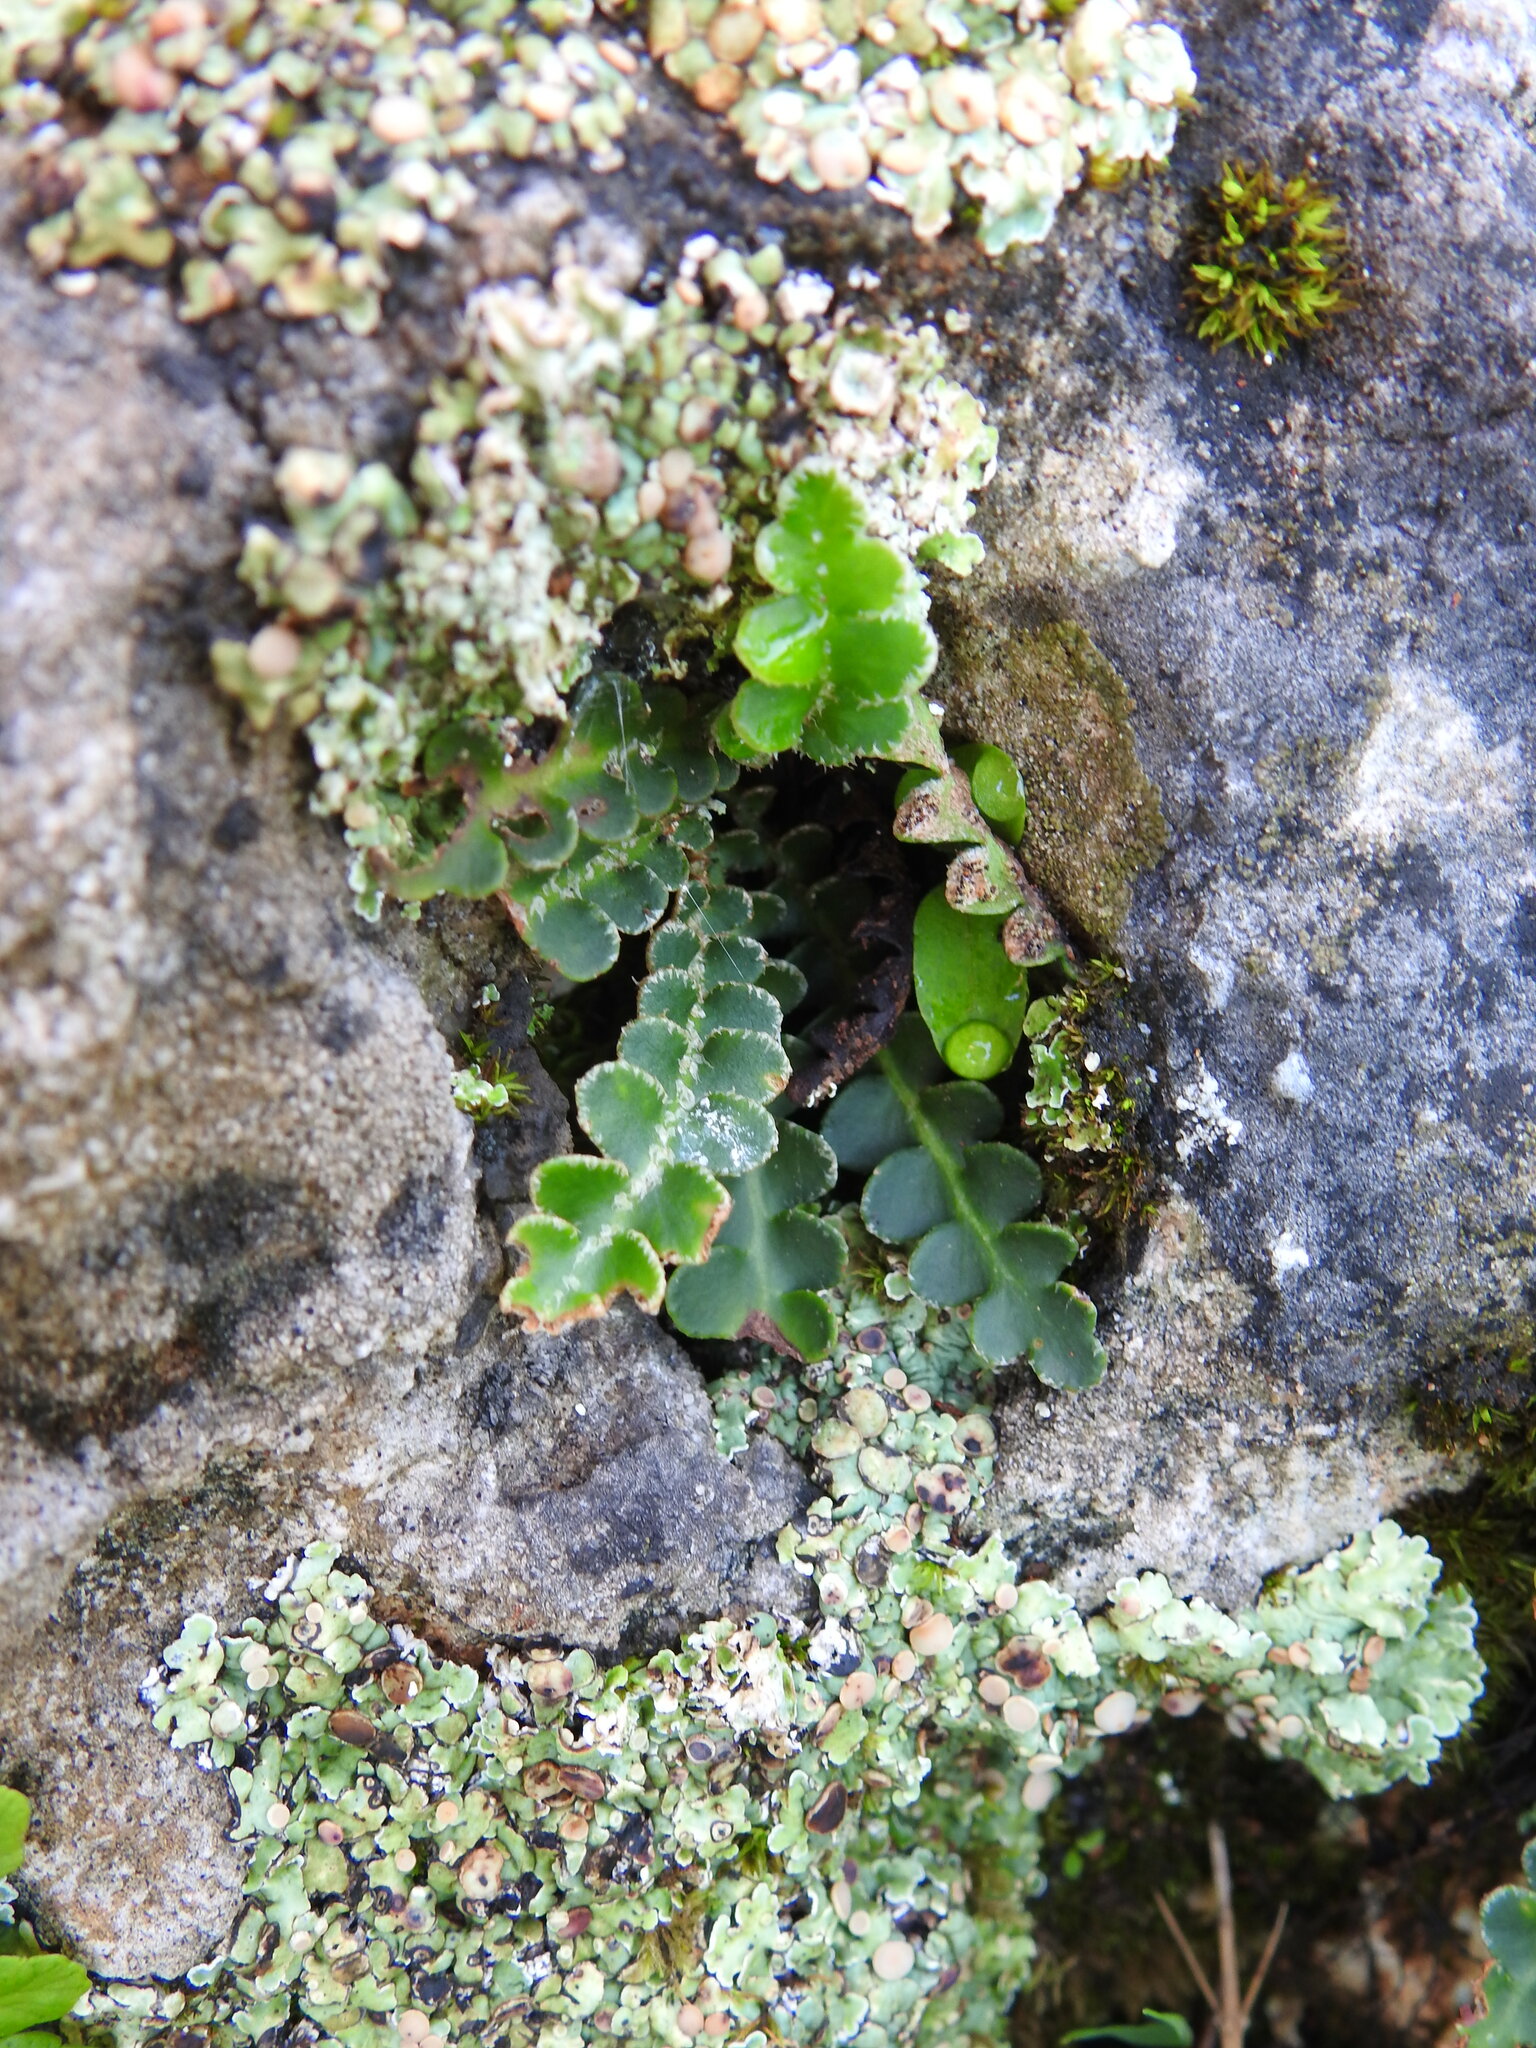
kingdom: Plantae
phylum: Tracheophyta
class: Polypodiopsida
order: Polypodiales
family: Aspleniaceae
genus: Asplenium
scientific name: Asplenium ceterach
